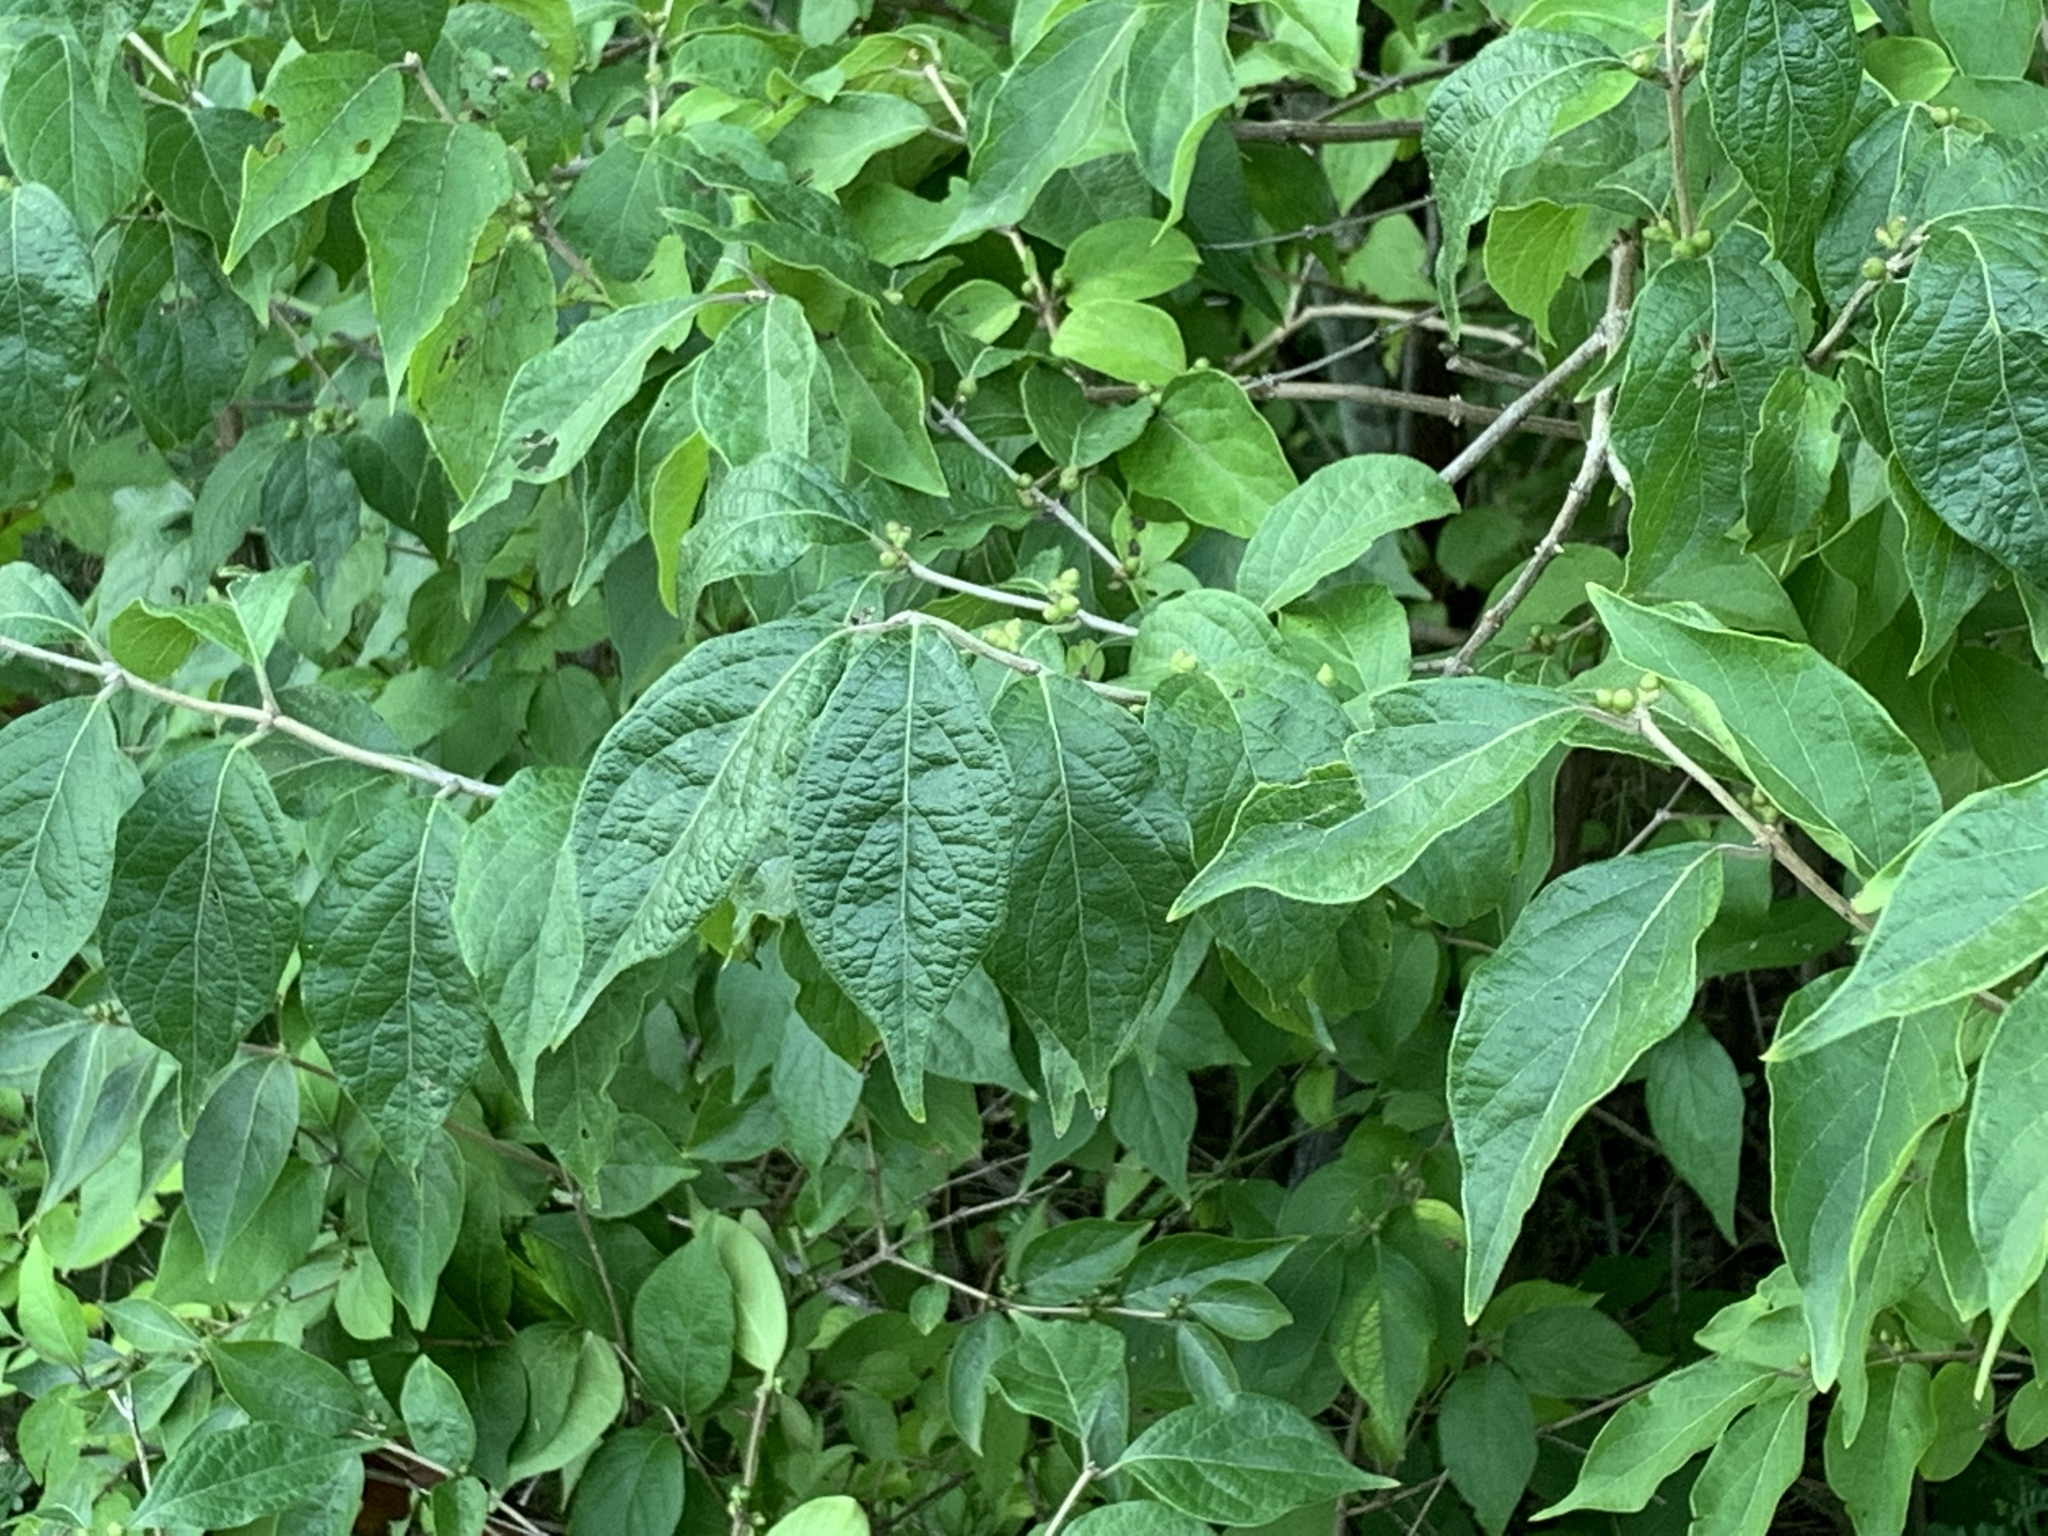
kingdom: Plantae
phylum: Tracheophyta
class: Magnoliopsida
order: Dipsacales
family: Caprifoliaceae
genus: Lonicera
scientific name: Lonicera maackii
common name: Amur honeysuckle
